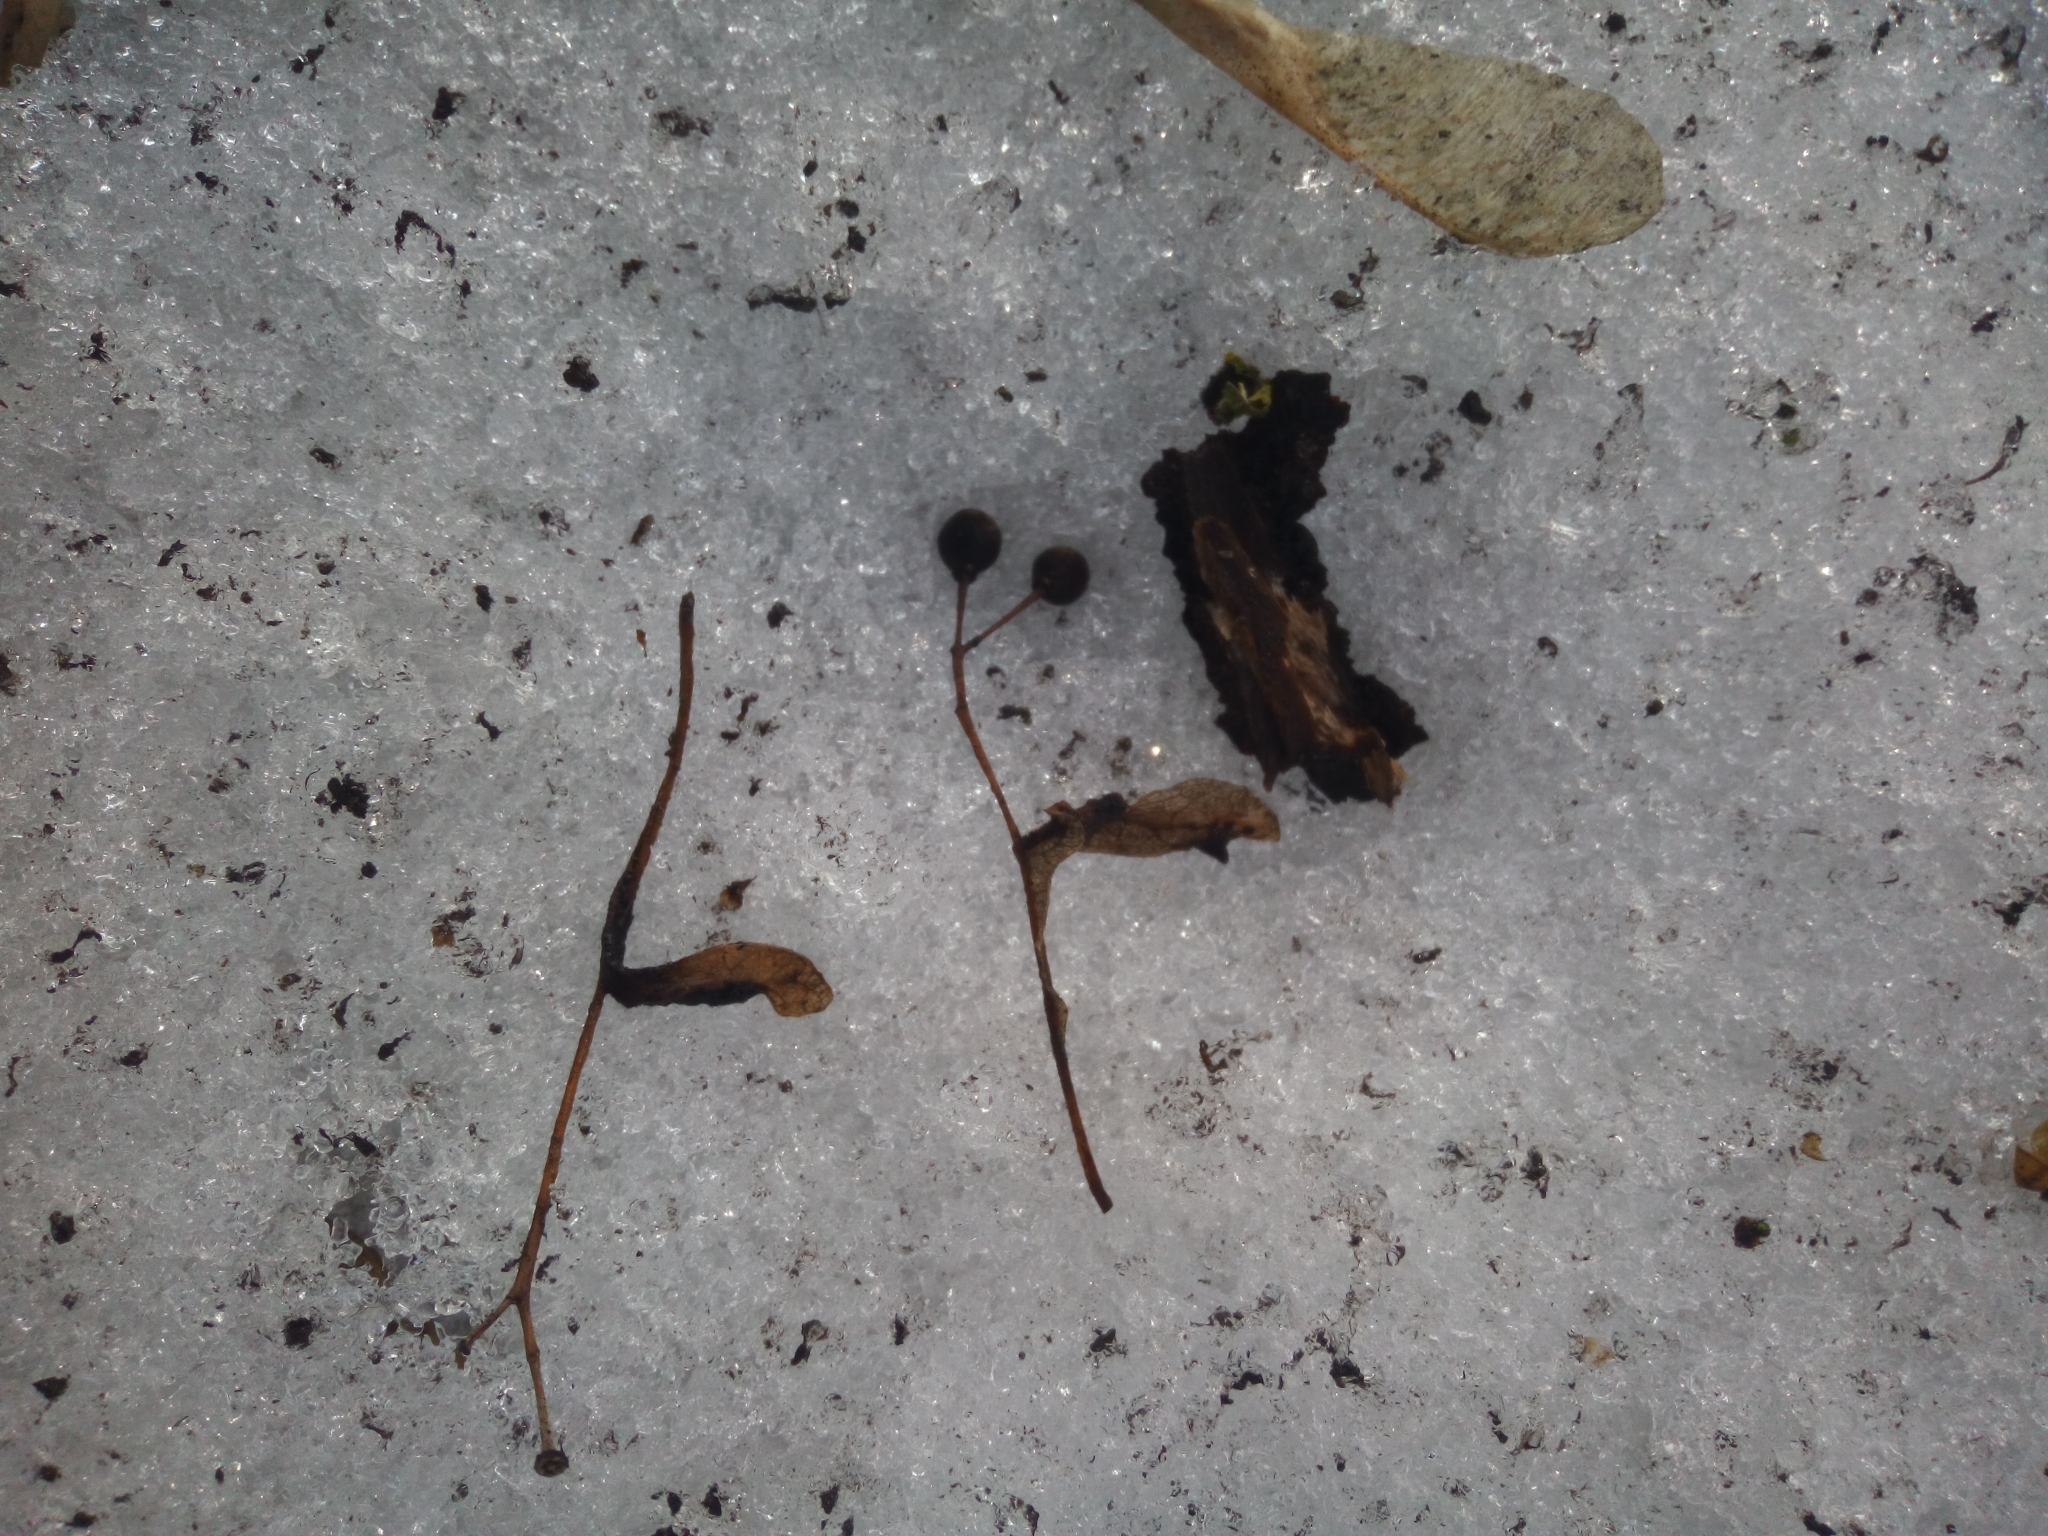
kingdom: Plantae
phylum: Tracheophyta
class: Magnoliopsida
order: Malvales
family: Malvaceae
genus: Tilia
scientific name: Tilia cordata
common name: Small-leaved lime
